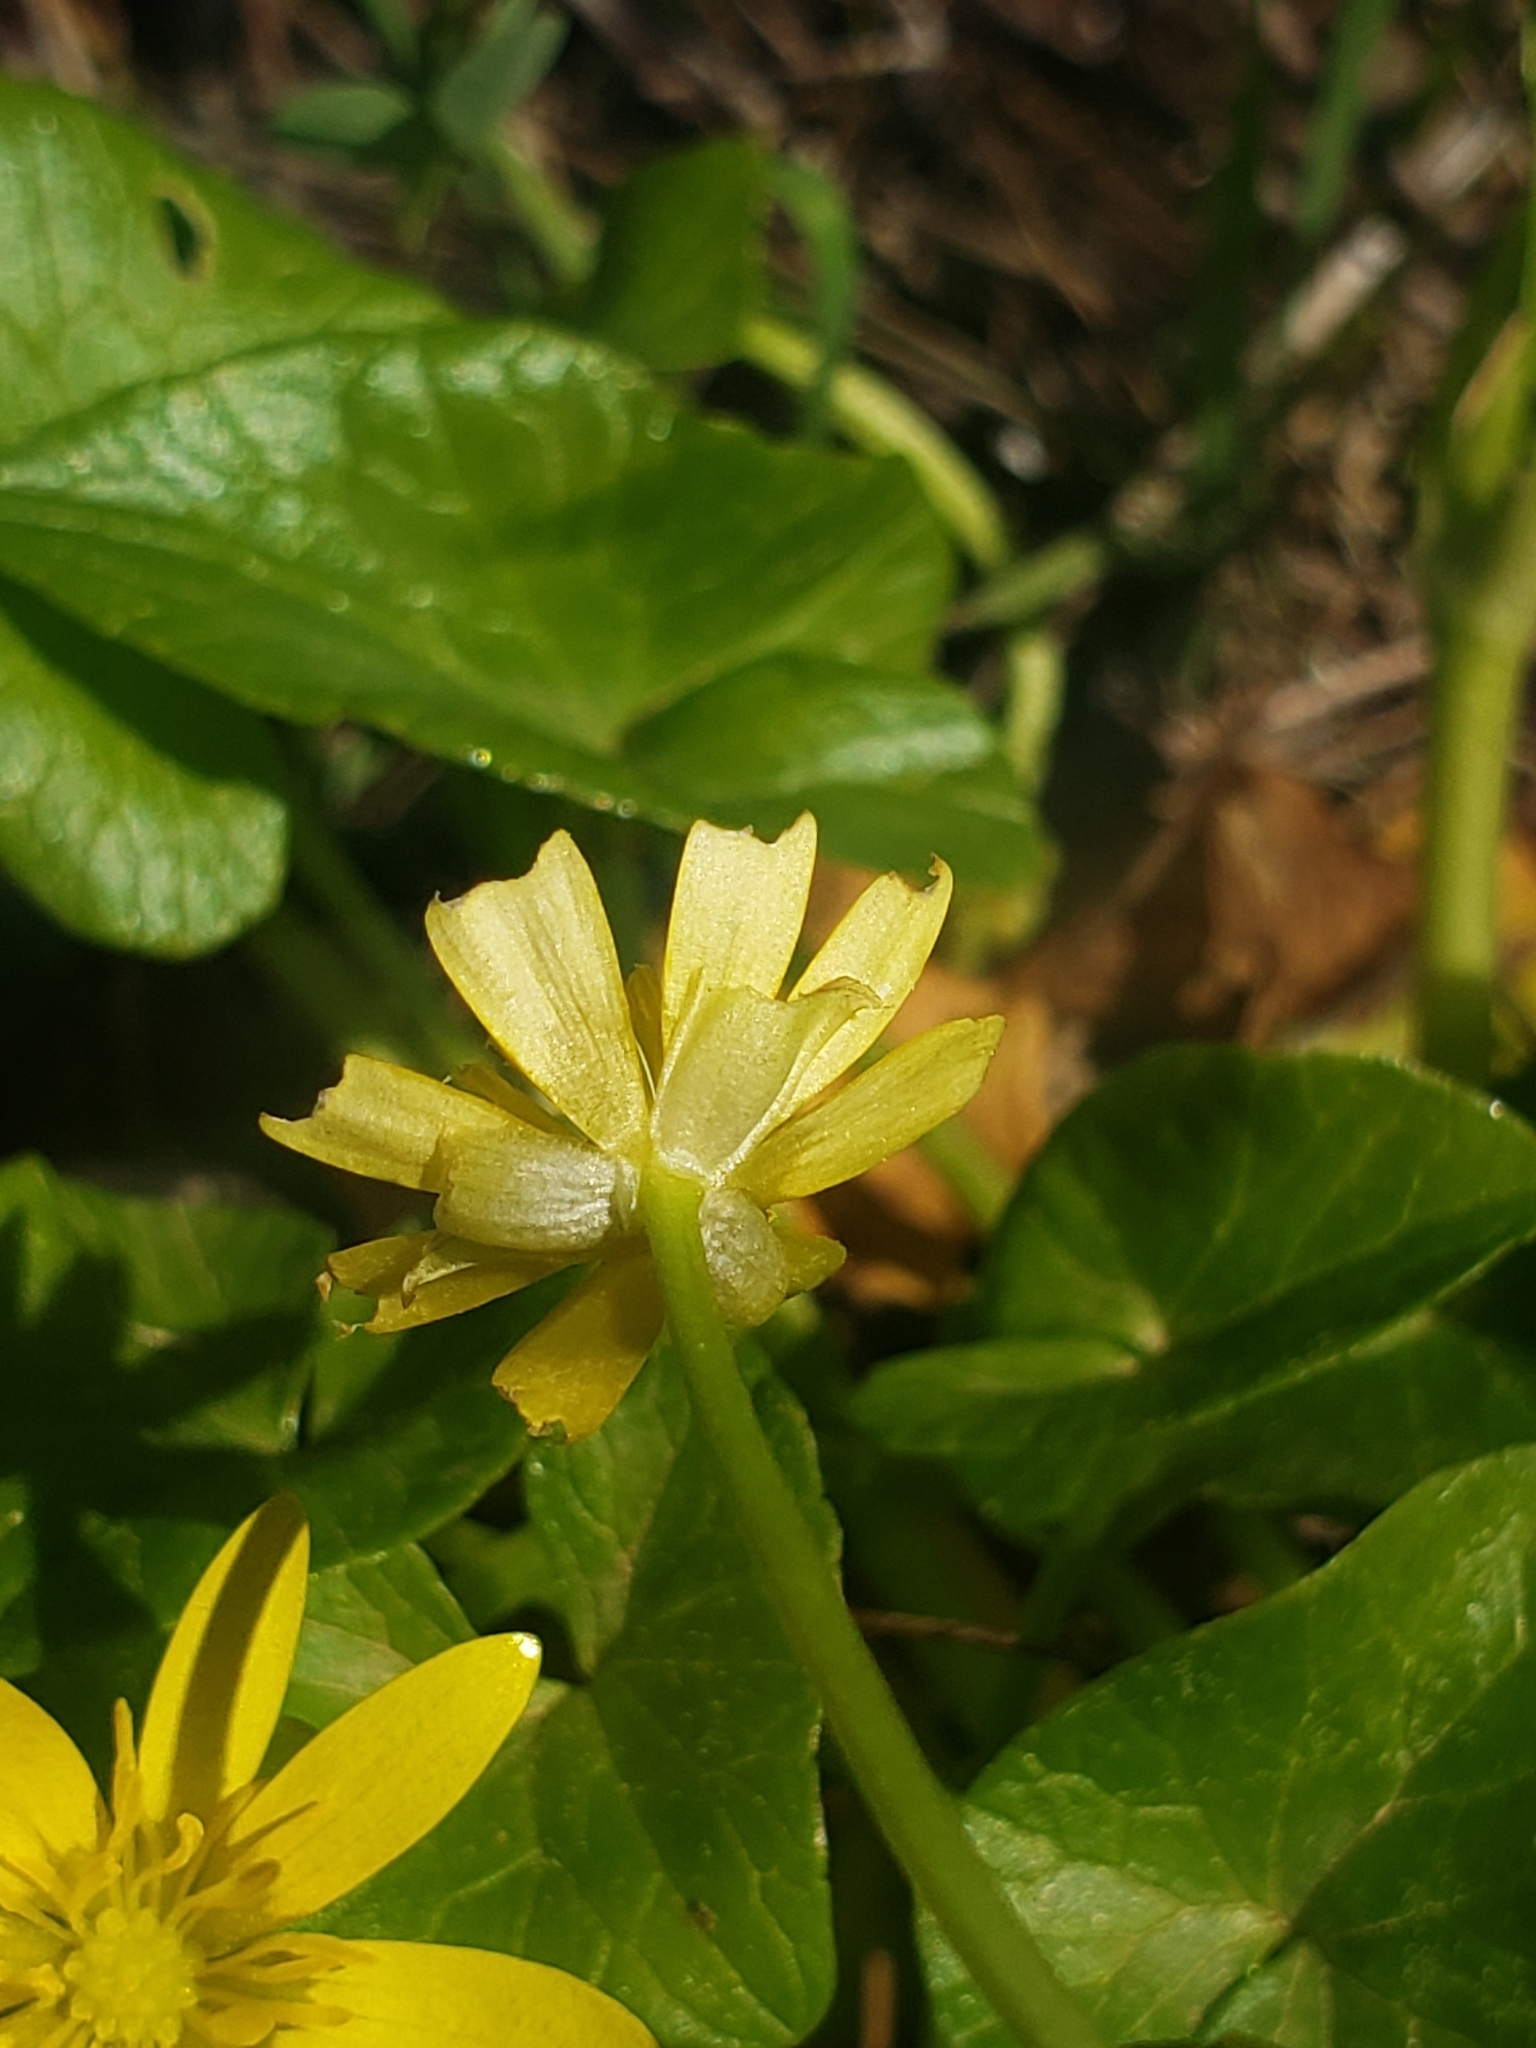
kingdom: Plantae
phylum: Tracheophyta
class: Magnoliopsida
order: Ranunculales
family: Ranunculaceae
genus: Ficaria
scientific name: Ficaria verna
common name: Lesser celandine
